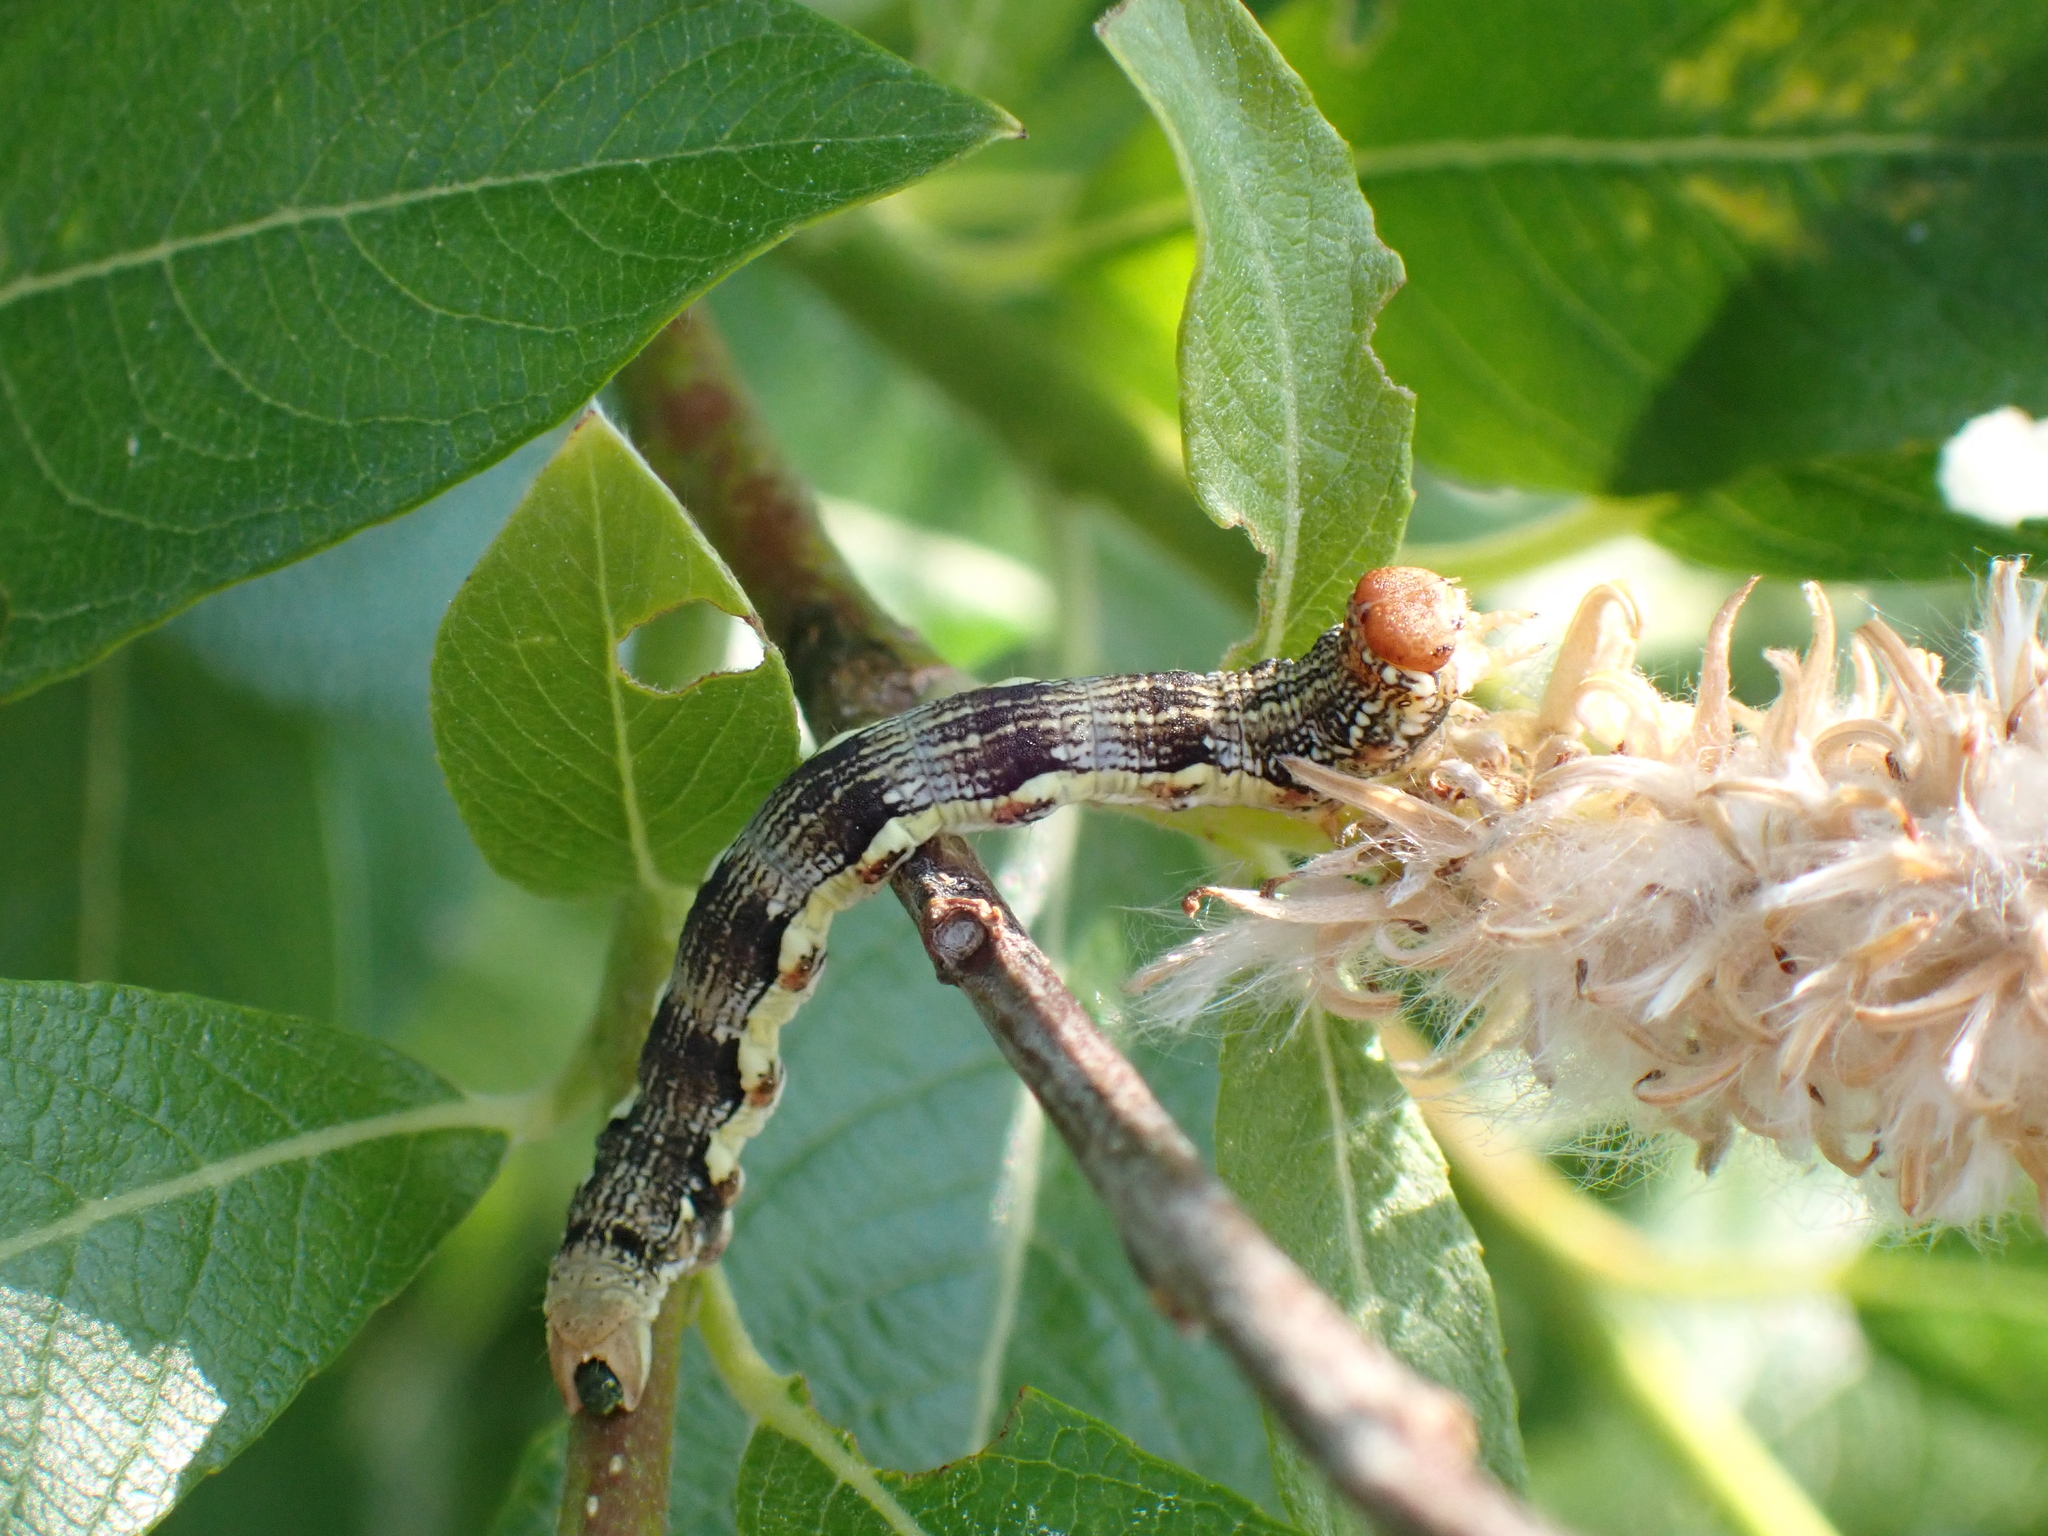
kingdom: Animalia
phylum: Arthropoda
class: Insecta
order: Lepidoptera
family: Geometridae
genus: Erannis
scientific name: Erannis defoliaria
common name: Mottled umber
